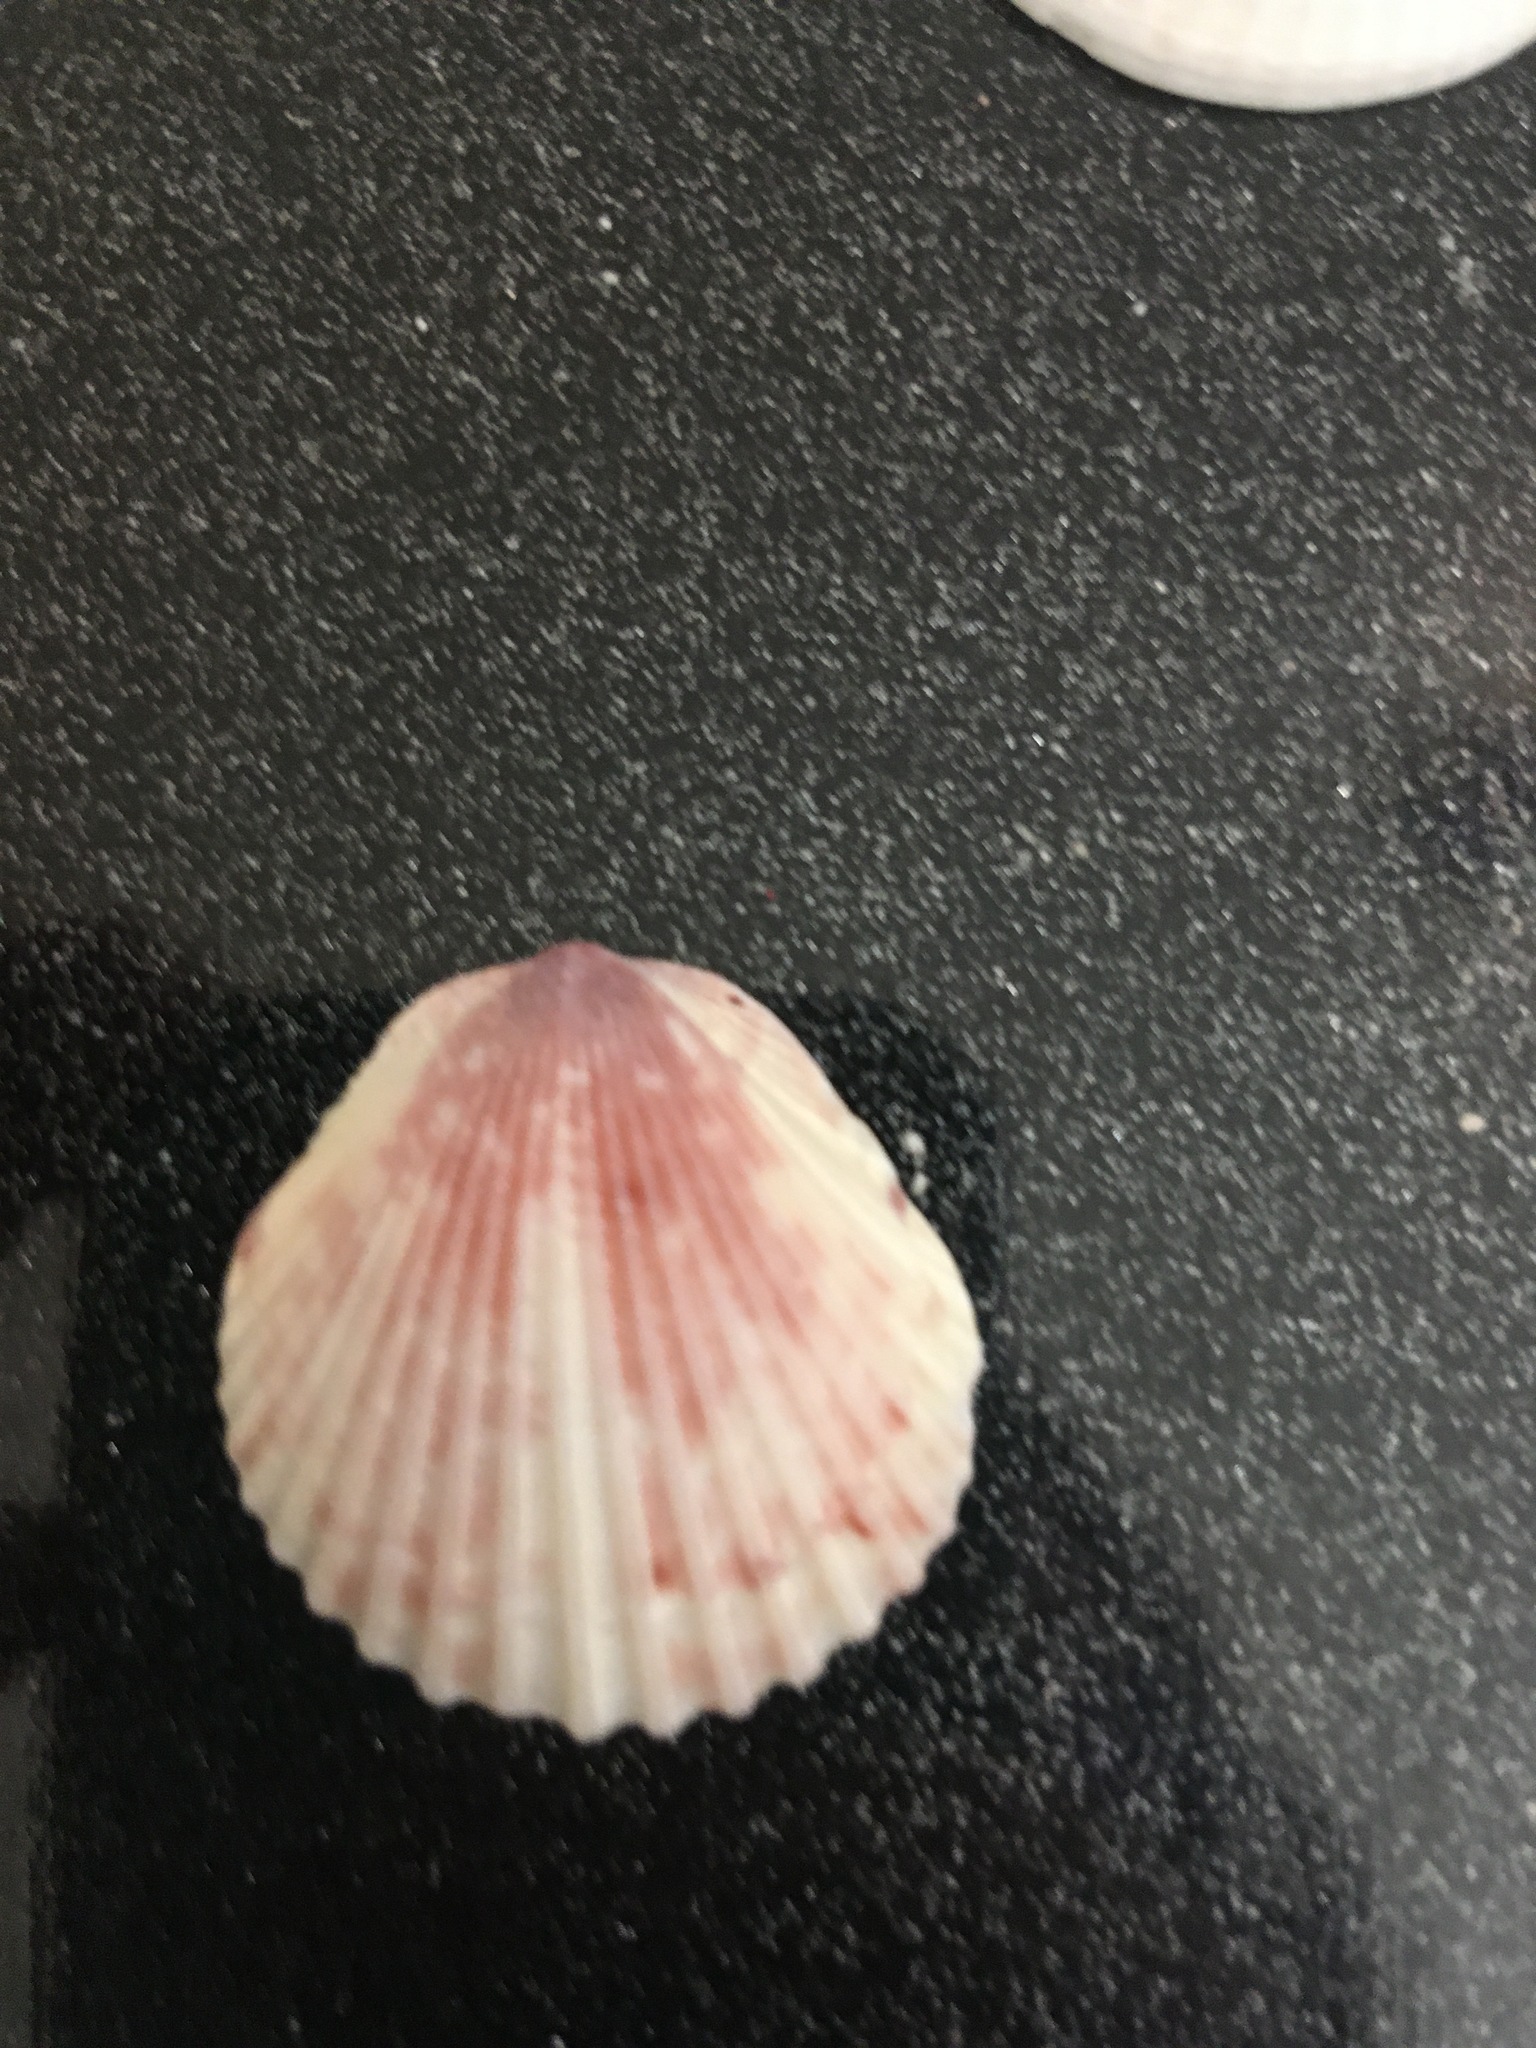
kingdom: Animalia
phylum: Mollusca
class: Bivalvia
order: Pectinida
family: Pectinidae
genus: Argopecten
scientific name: Argopecten gibbus
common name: Atlantic calico scallop
